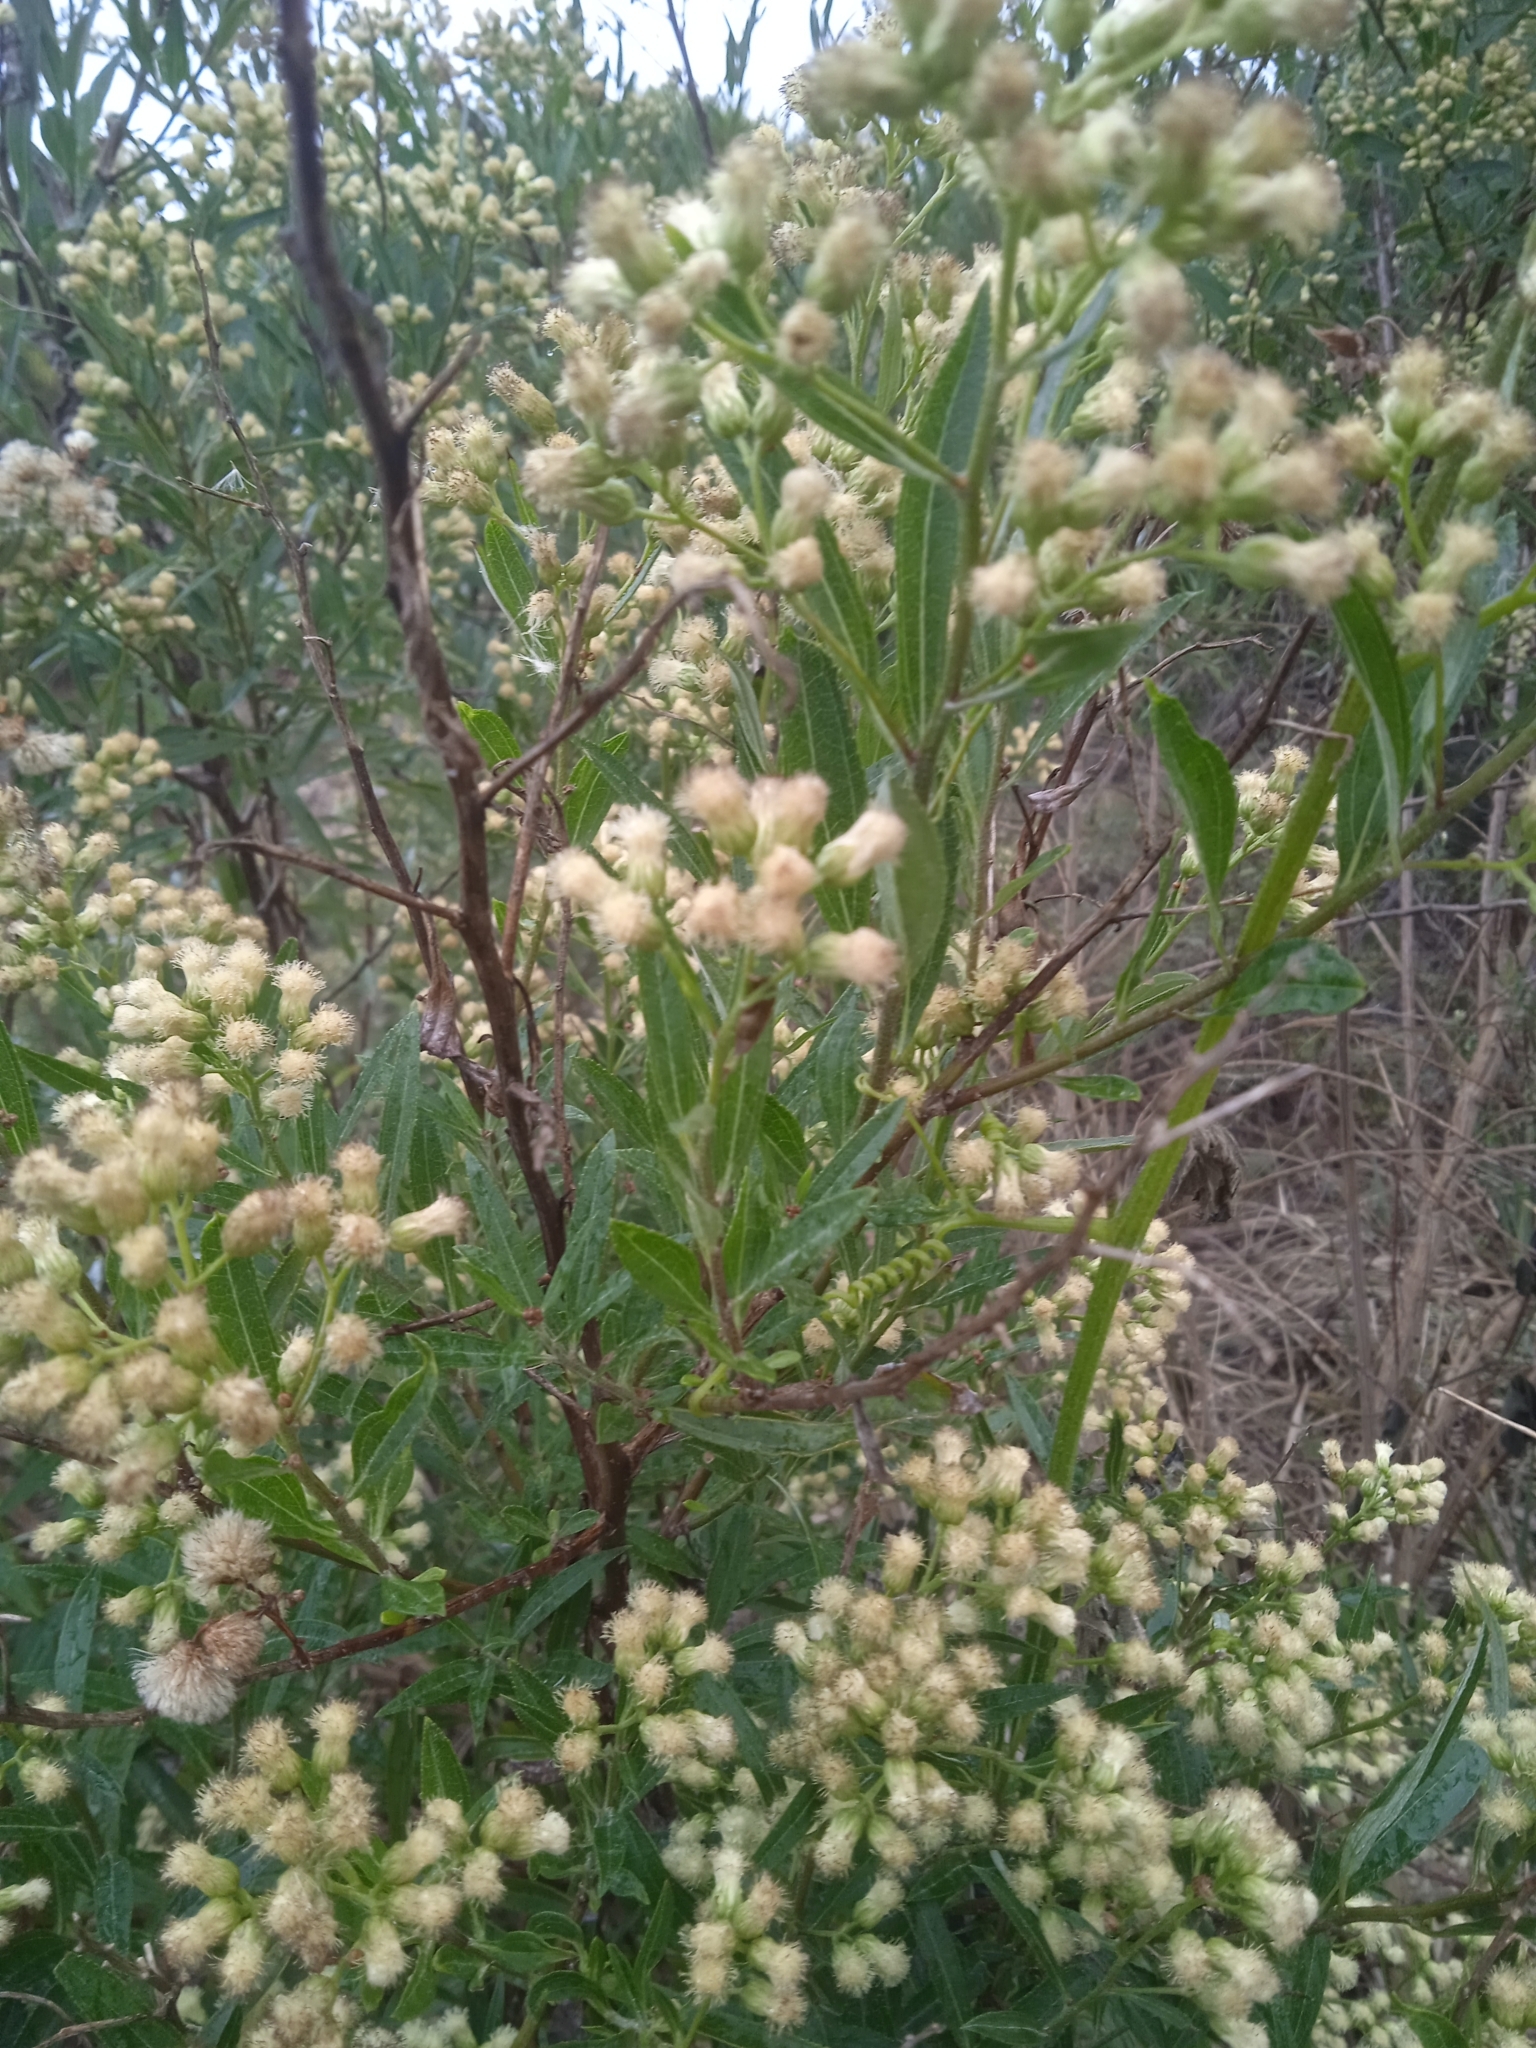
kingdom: Plantae
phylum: Tracheophyta
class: Magnoliopsida
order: Asterales
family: Asteraceae
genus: Baccharis
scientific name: Baccharis punctulata
